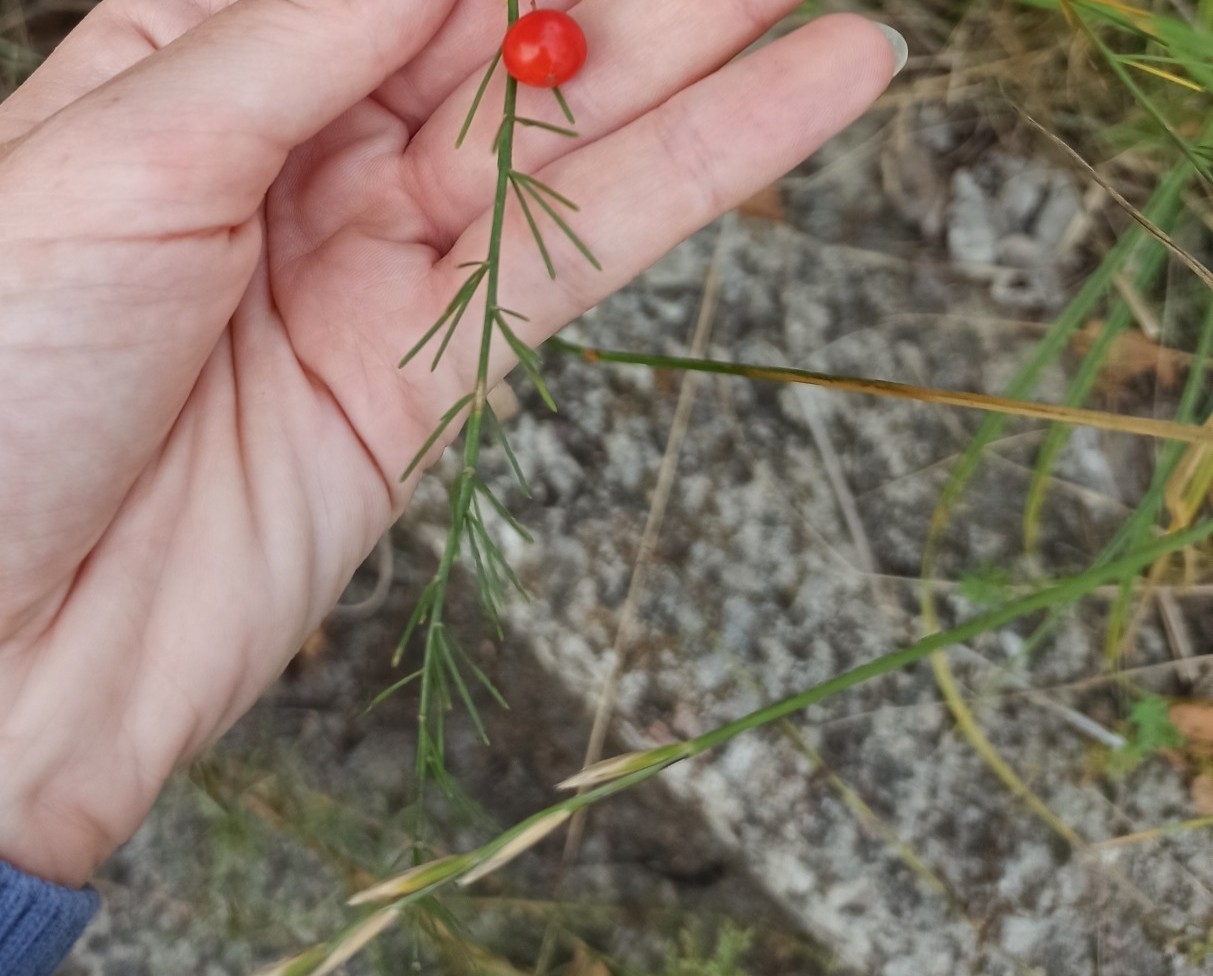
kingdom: Plantae
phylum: Tracheophyta
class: Liliopsida
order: Asparagales
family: Asparagaceae
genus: Asparagus
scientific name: Asparagus officinalis
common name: Garden asparagus
